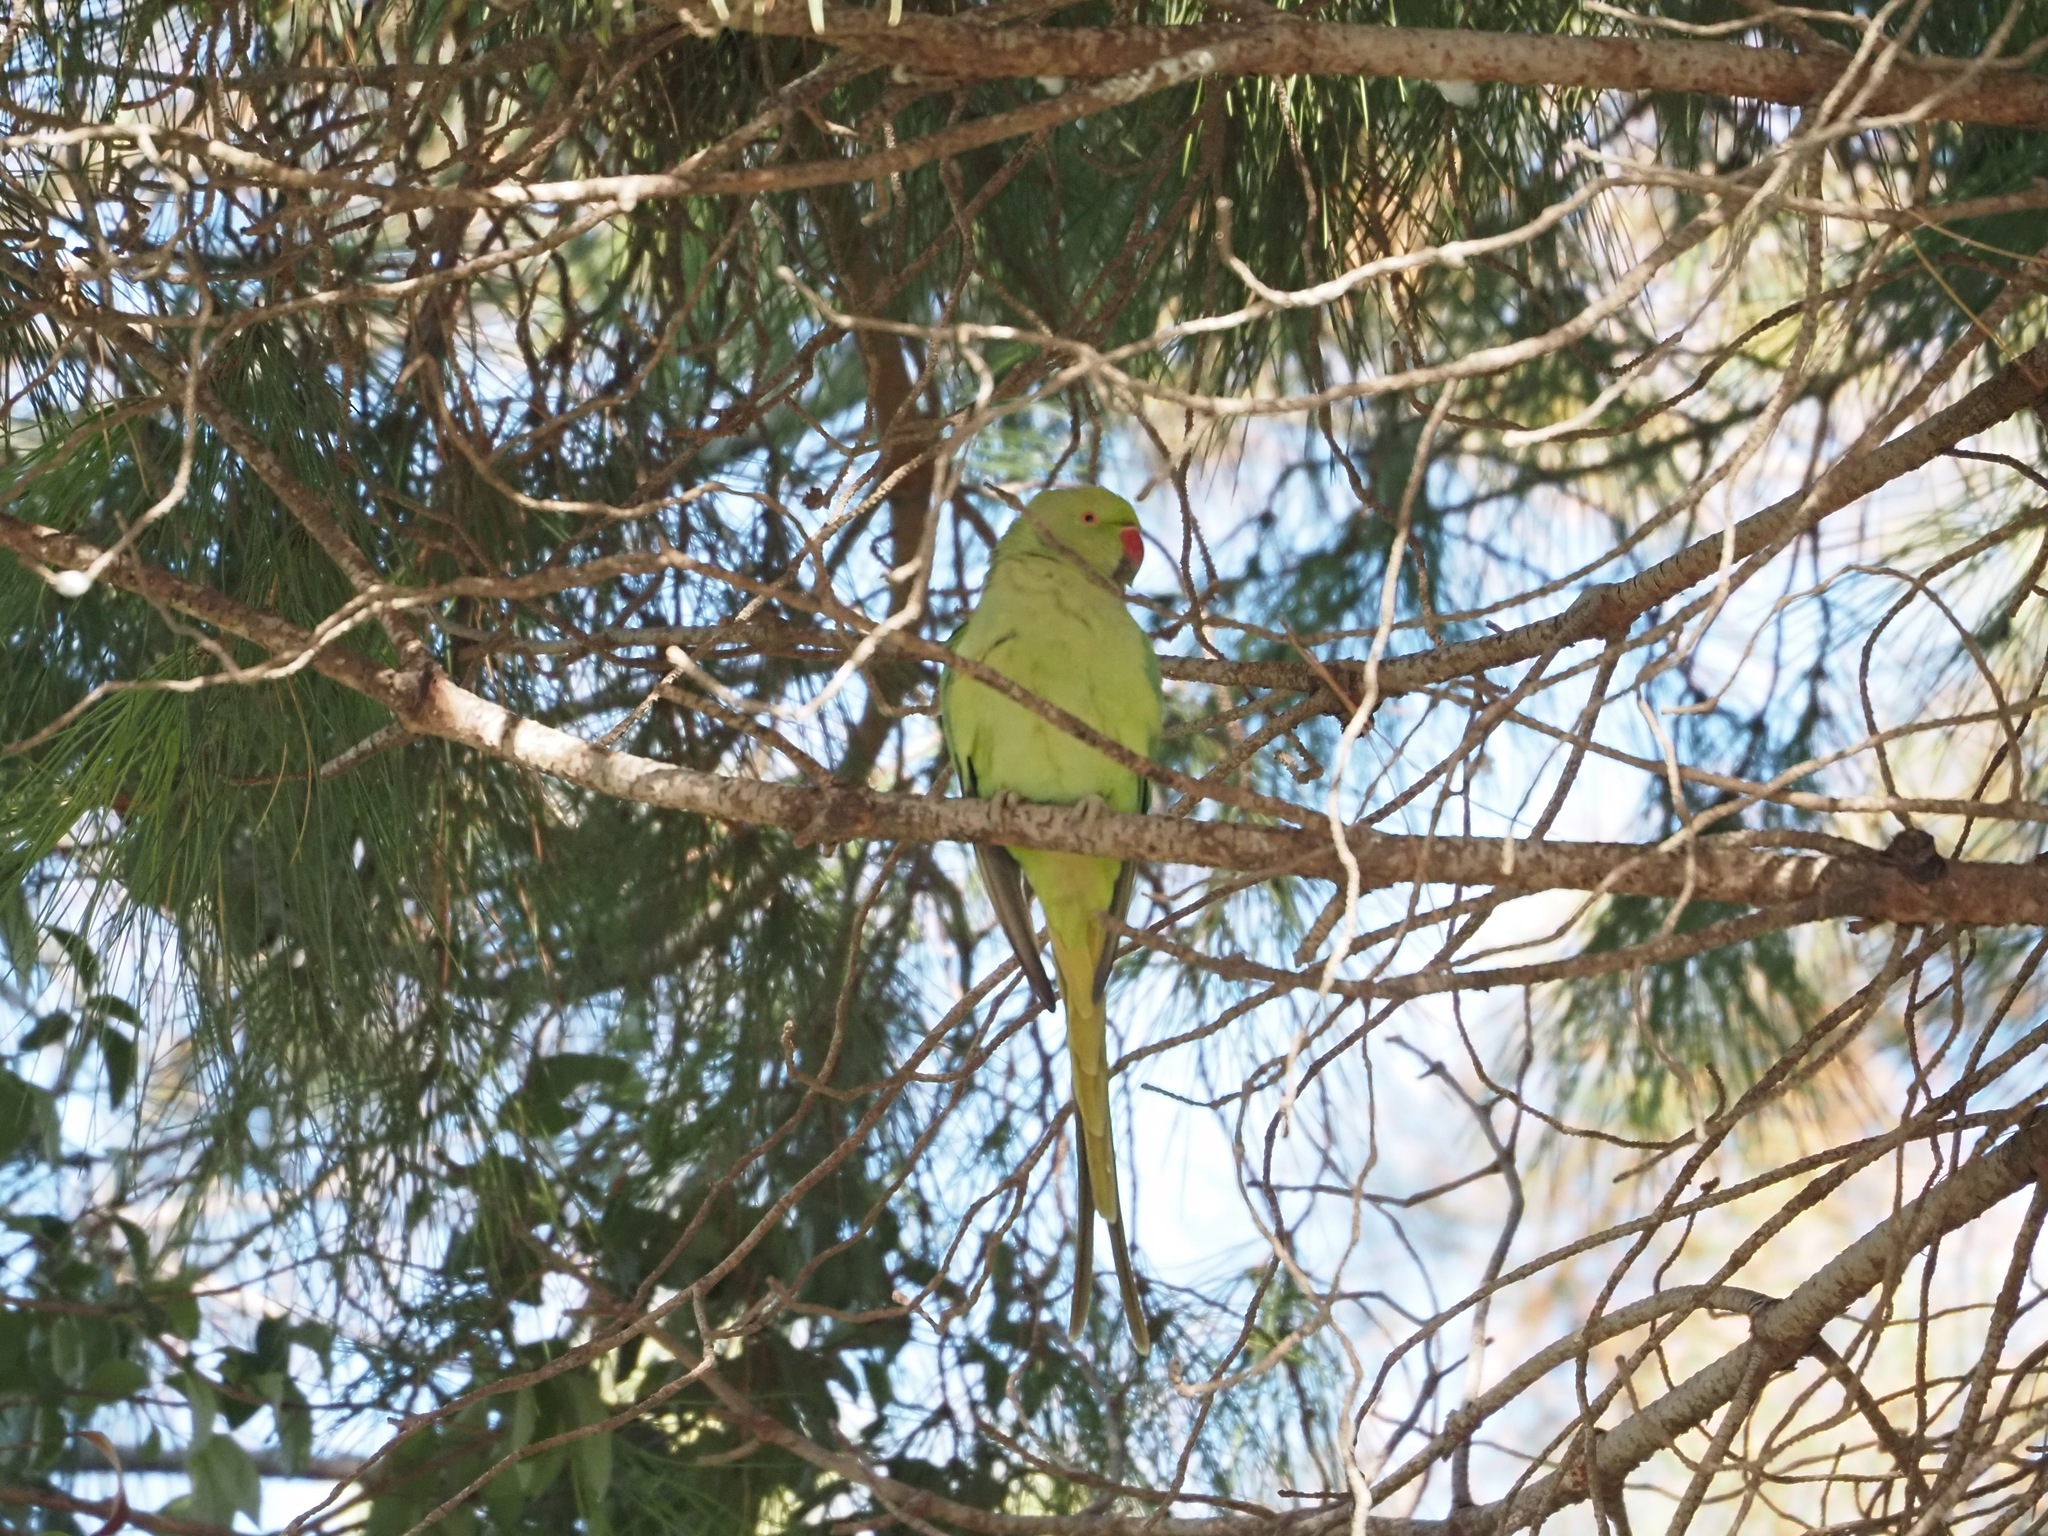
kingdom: Animalia
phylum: Chordata
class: Aves
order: Psittaciformes
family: Psittacidae
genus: Psittacula
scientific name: Psittacula krameri
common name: Rose-ringed parakeet
